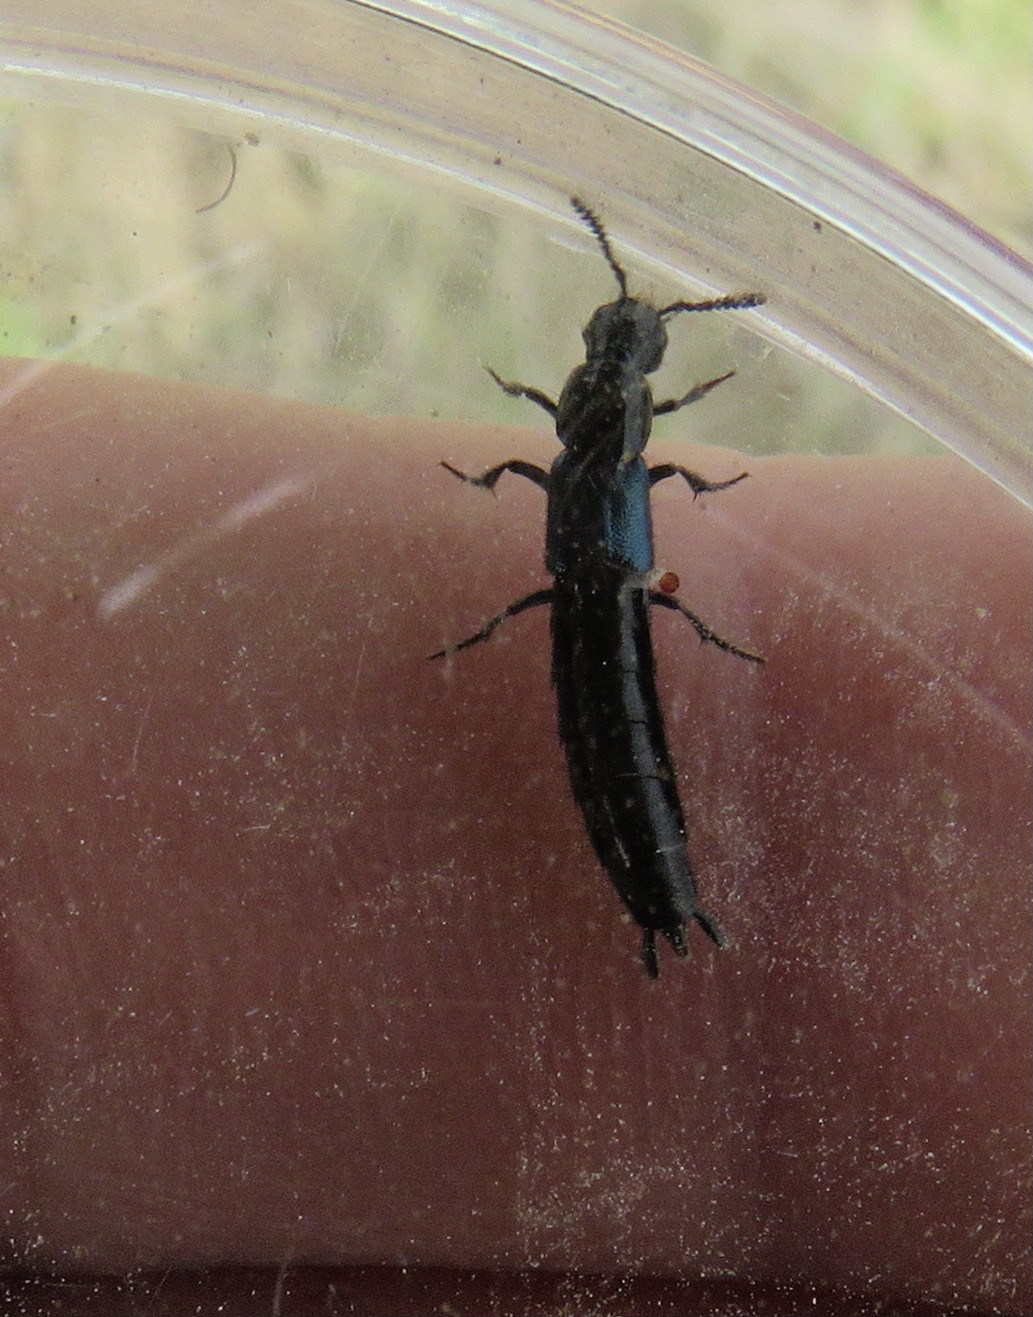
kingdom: Animalia
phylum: Arthropoda
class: Insecta
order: Coleoptera
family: Staphylinidae
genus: Flohria
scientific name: Flohria subcoerulea
